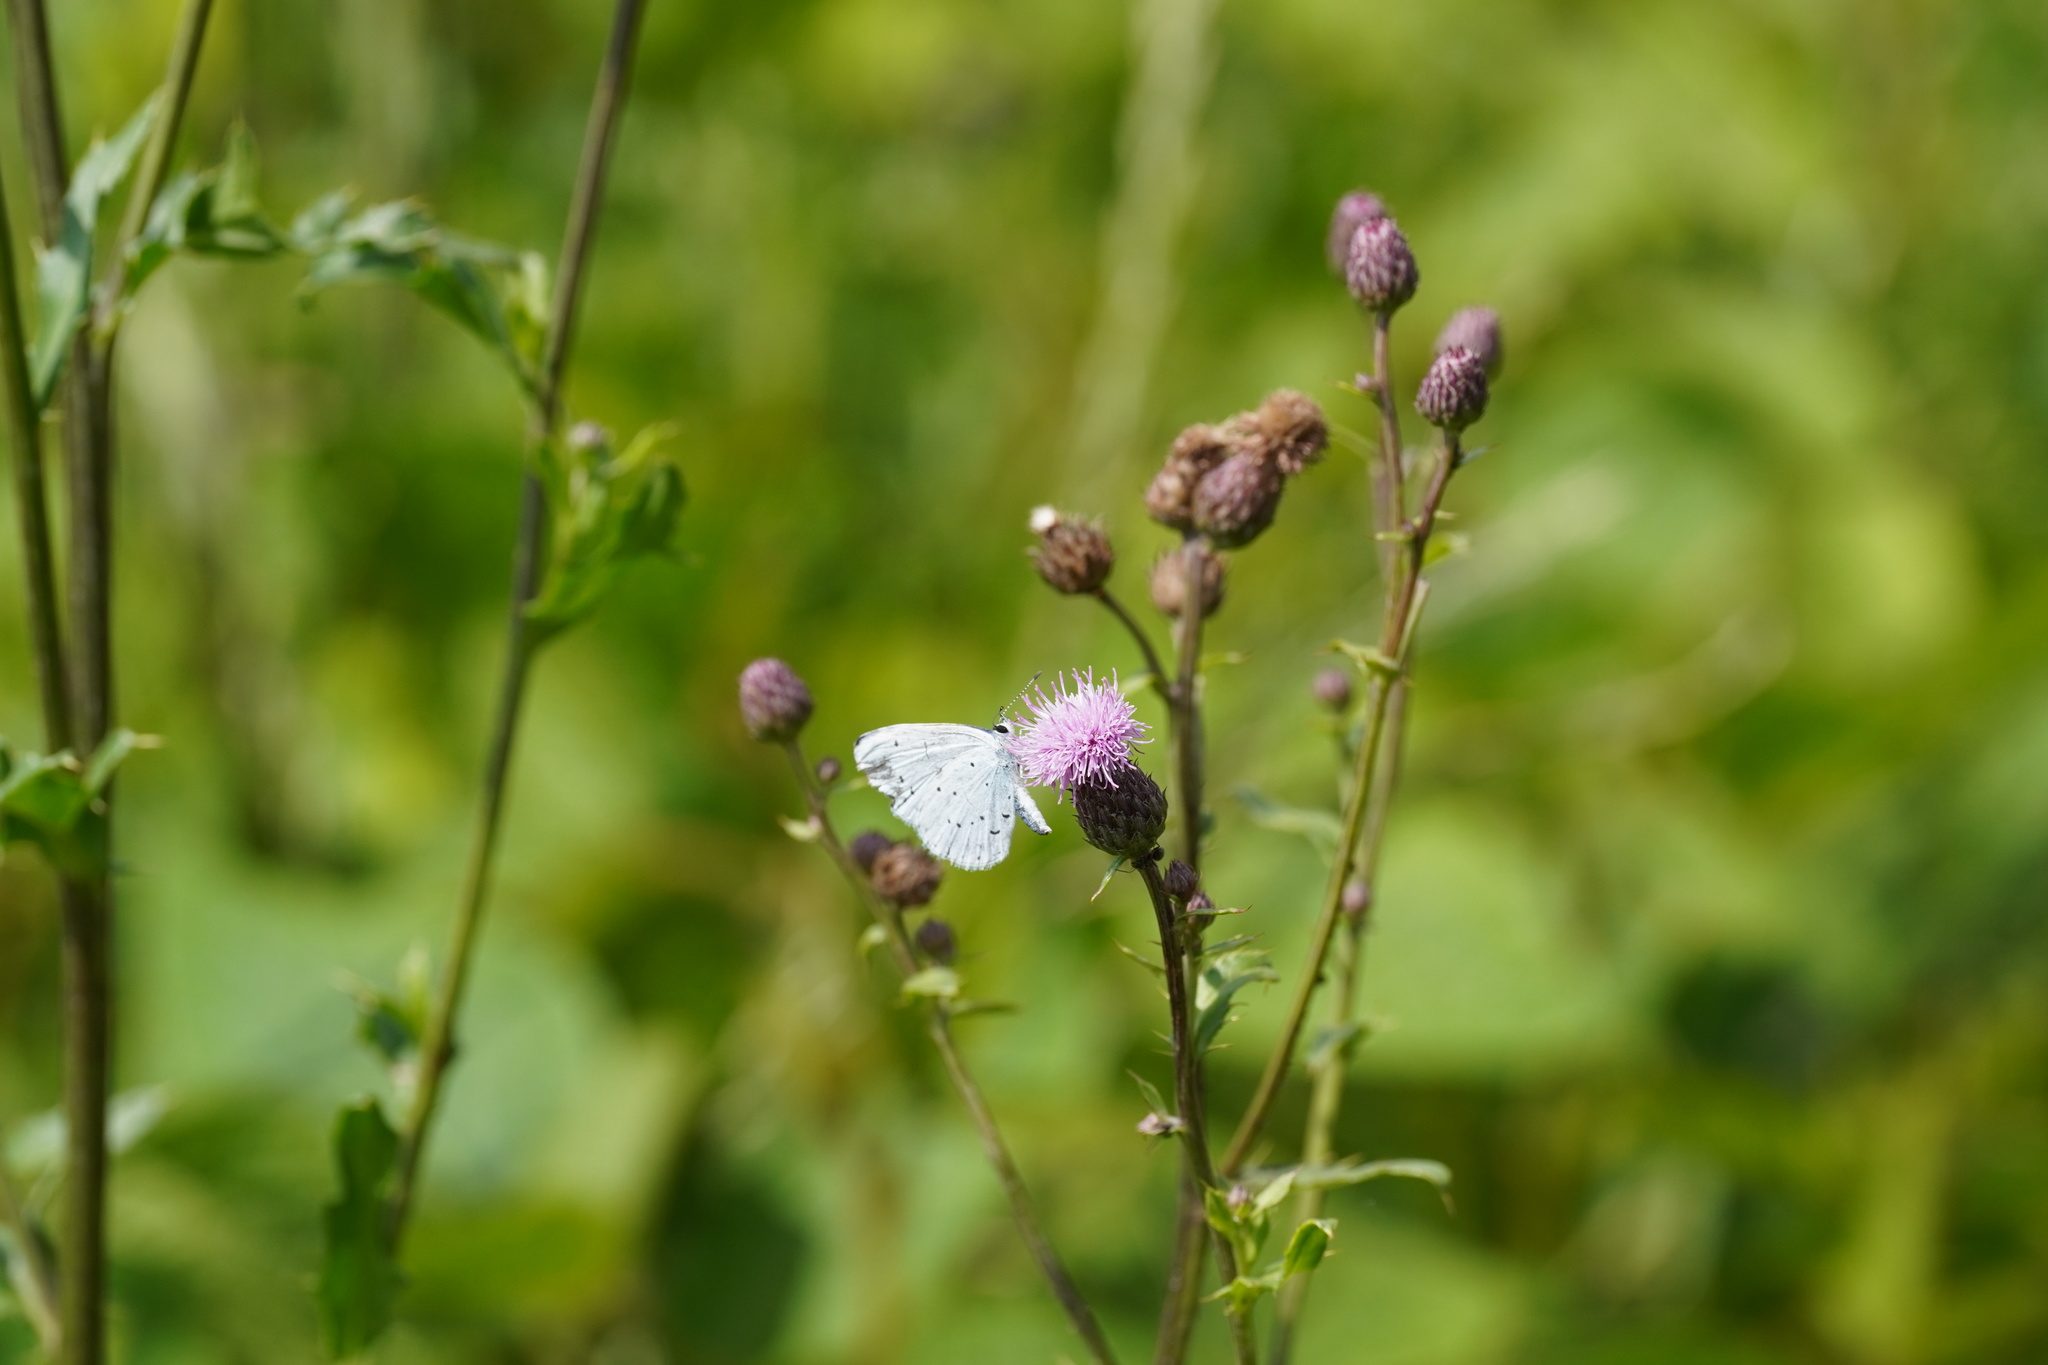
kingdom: Animalia
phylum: Arthropoda
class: Insecta
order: Lepidoptera
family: Lycaenidae
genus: Celastrina
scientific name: Celastrina argiolus
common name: Holly blue
